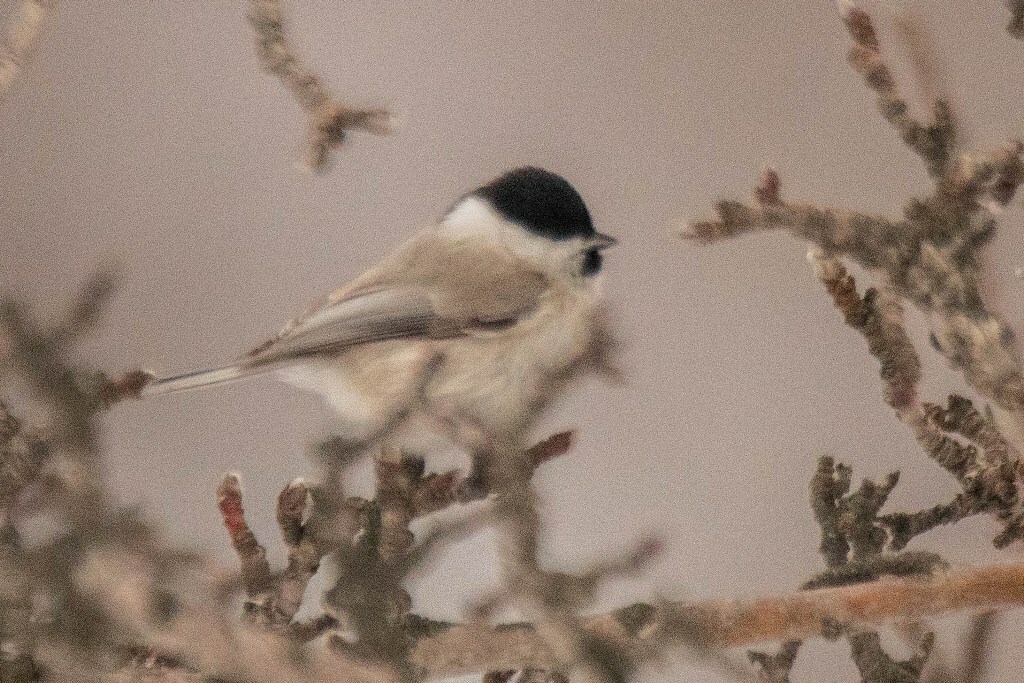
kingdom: Animalia
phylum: Chordata
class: Aves
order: Passeriformes
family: Paridae
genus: Poecile
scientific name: Poecile palustris
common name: Marsh tit
